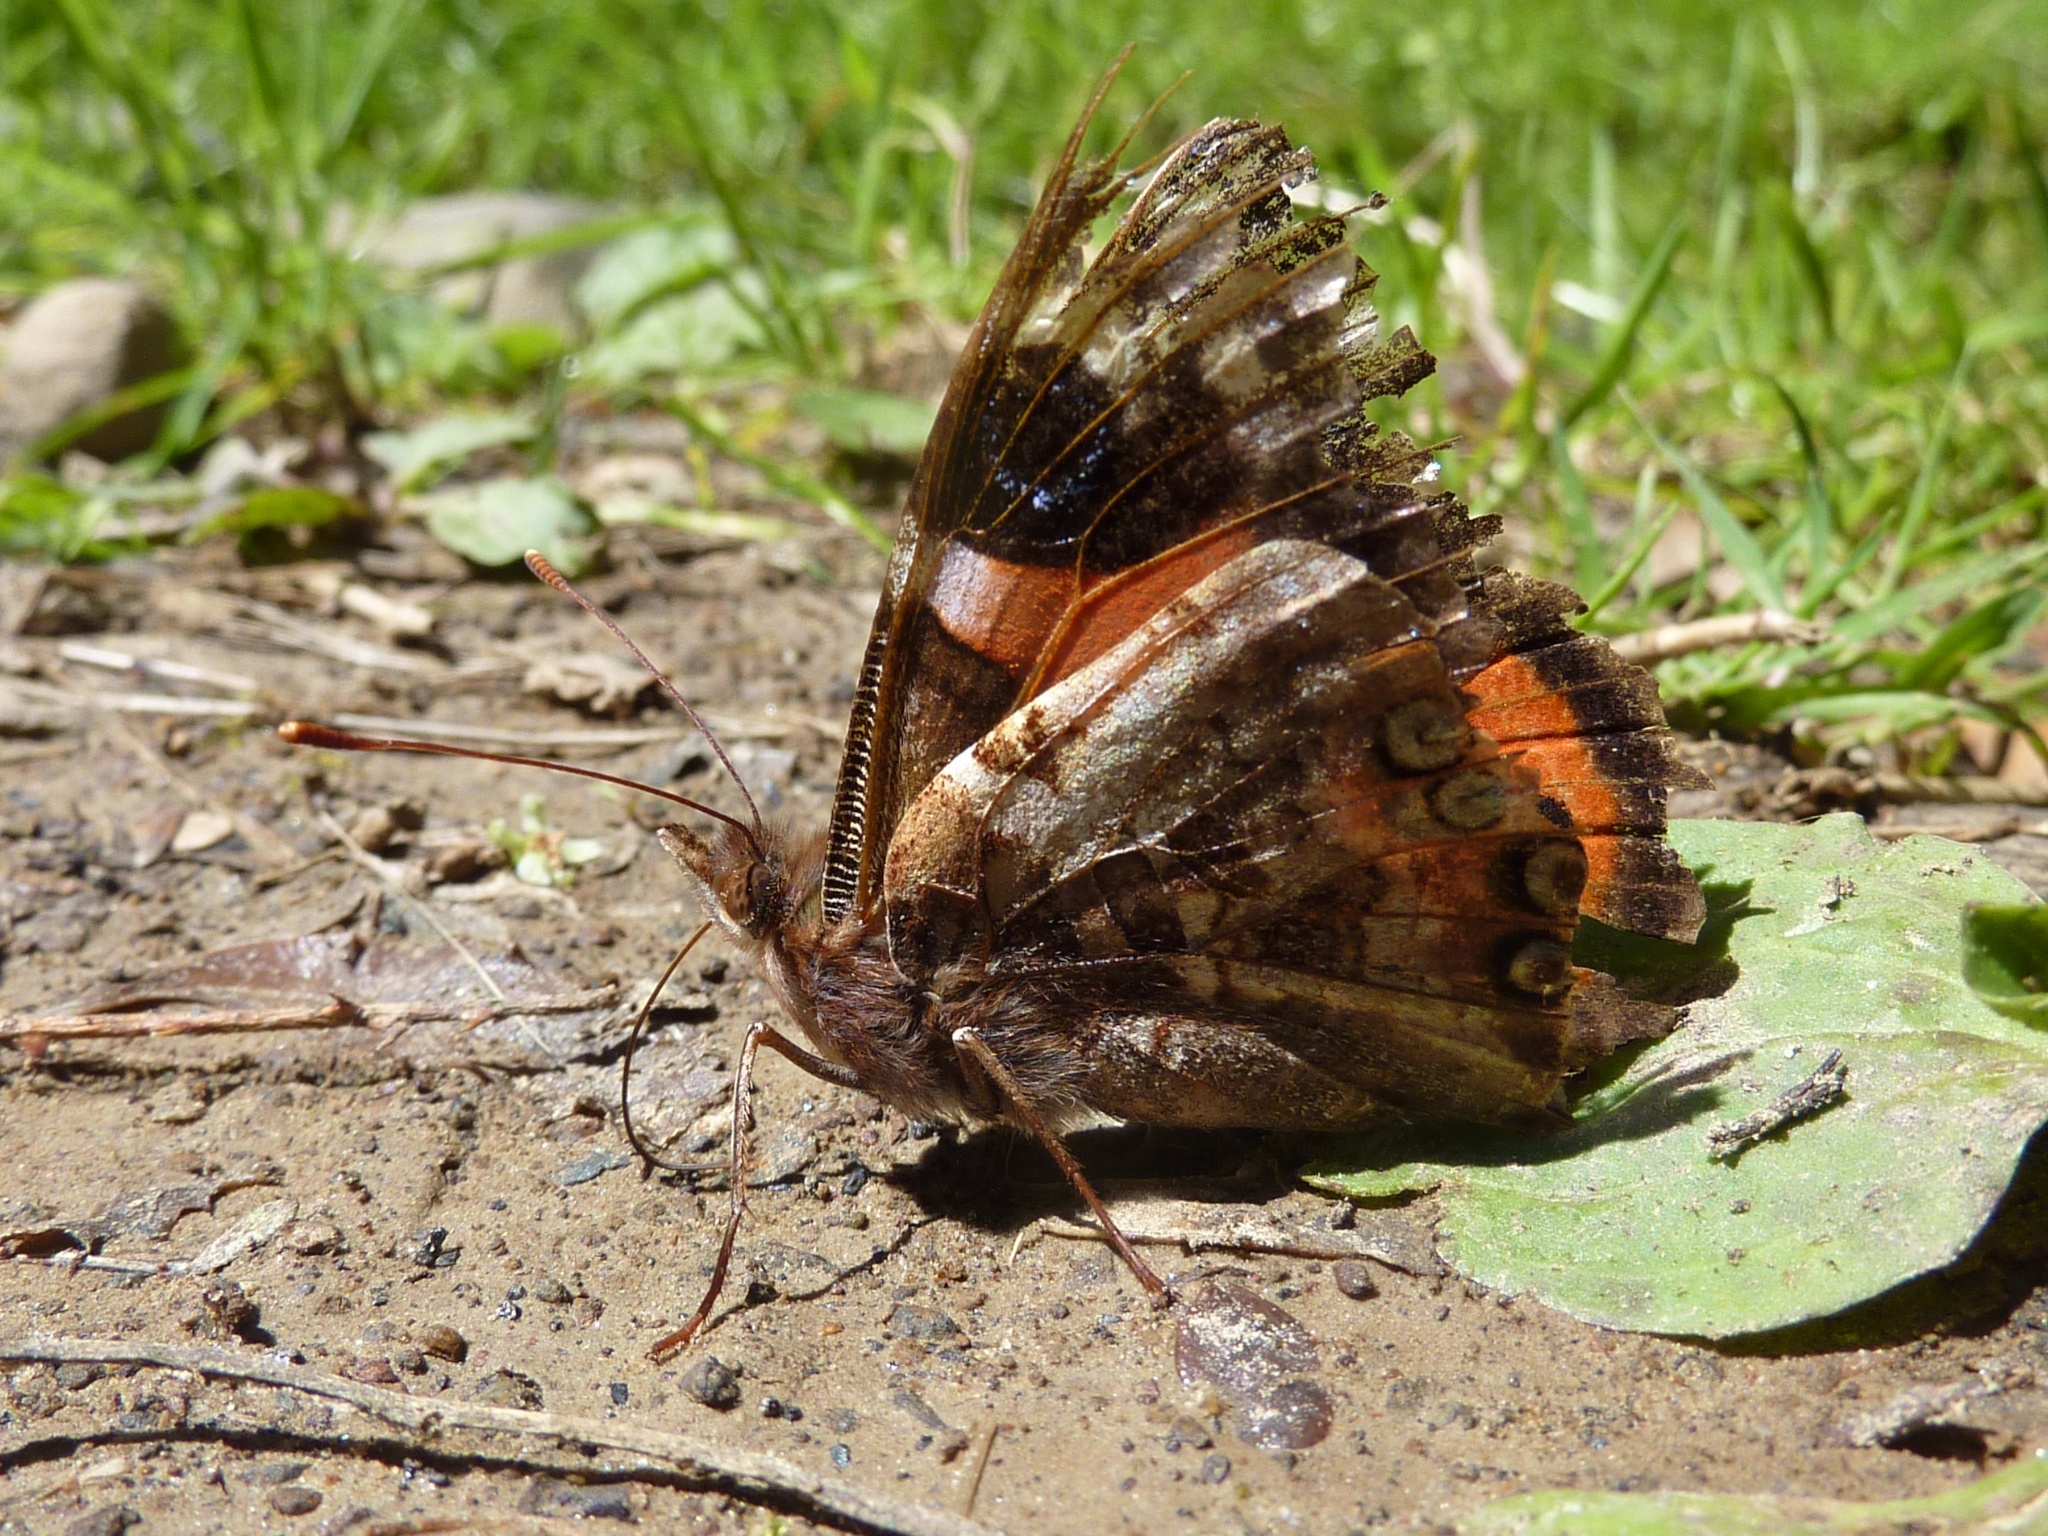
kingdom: Animalia
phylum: Arthropoda
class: Insecta
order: Lepidoptera
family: Nymphalidae
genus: Vanessa
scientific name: Vanessa gonerilla
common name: New zealand red admiral
